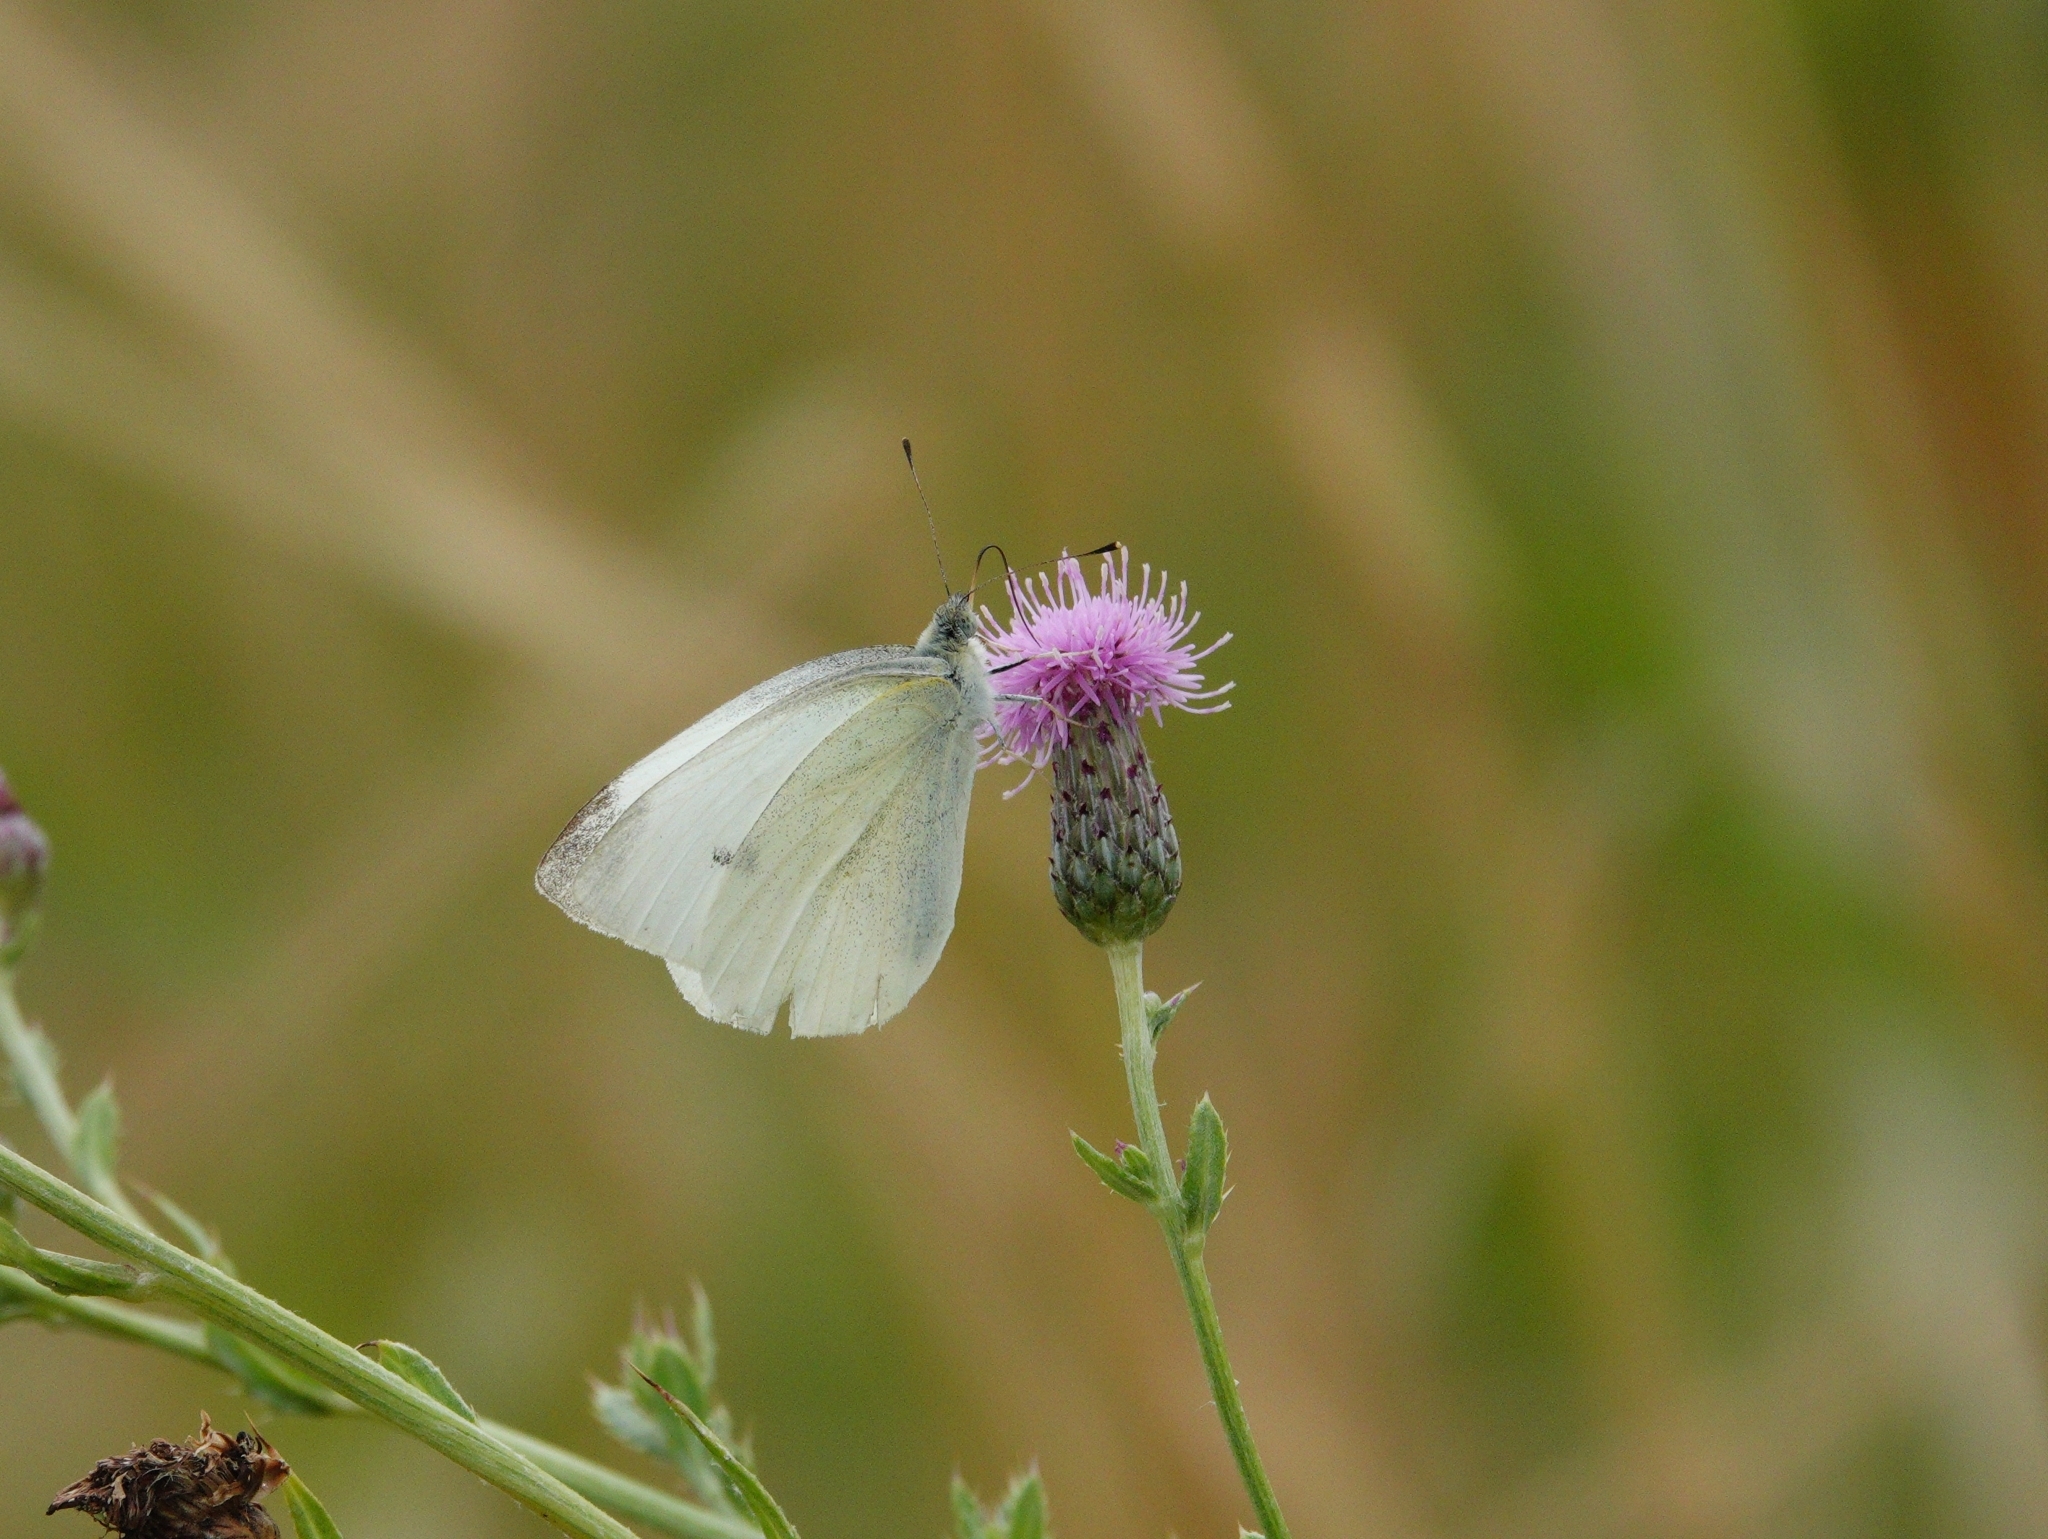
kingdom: Animalia
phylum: Arthropoda
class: Insecta
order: Lepidoptera
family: Pieridae
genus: Pieris
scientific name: Pieris rapae
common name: Small white
